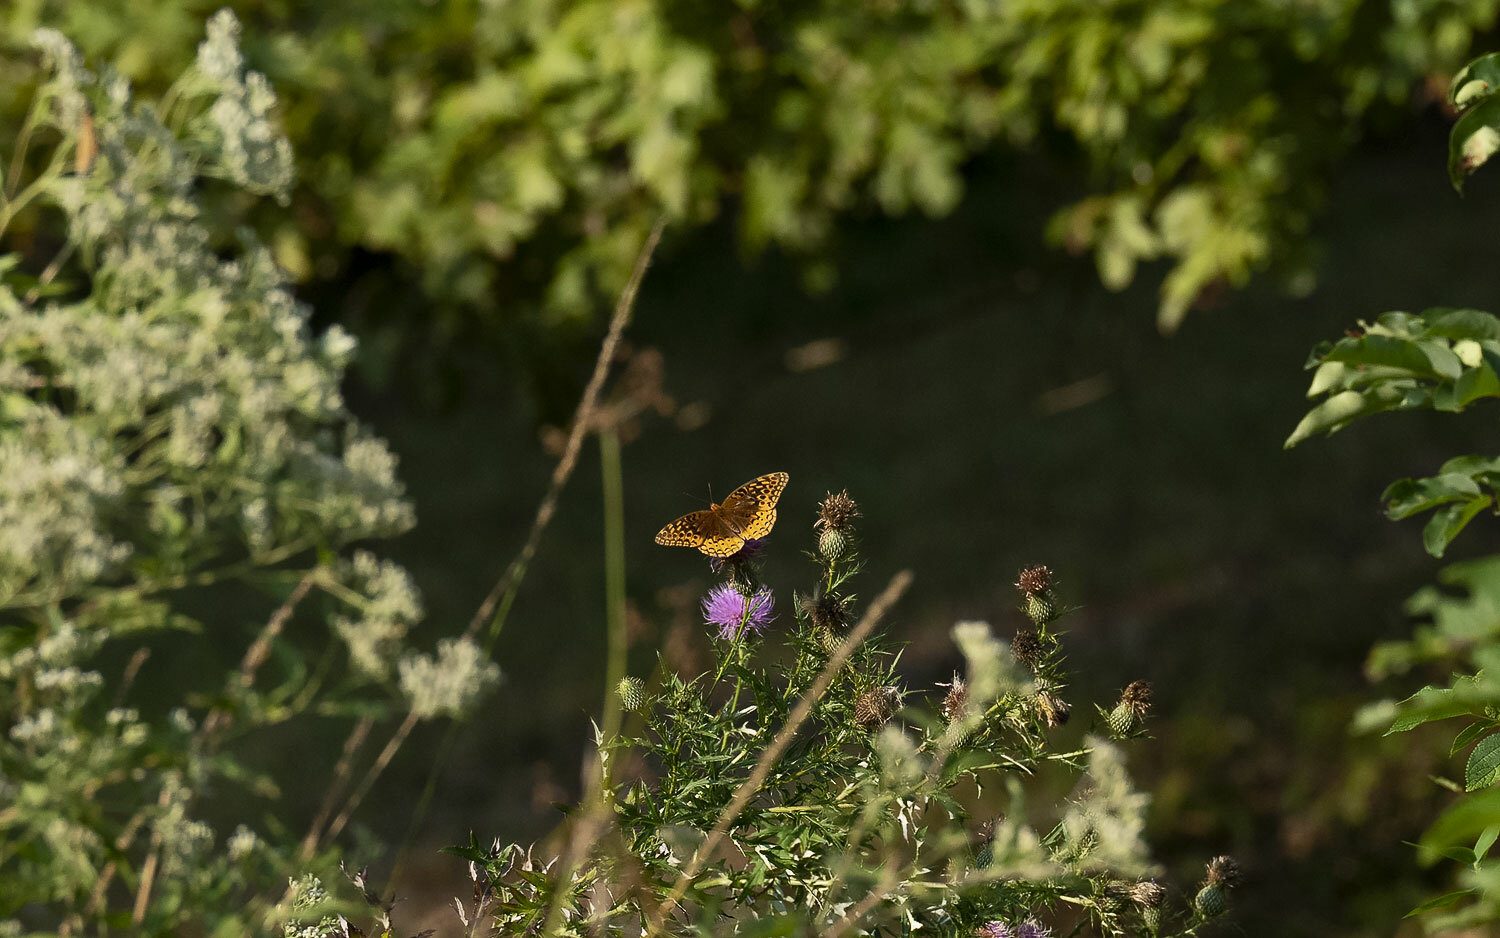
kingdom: Animalia
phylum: Arthropoda
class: Insecta
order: Lepidoptera
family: Nymphalidae
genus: Speyeria
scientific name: Speyeria cybele
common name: Great spangled fritillary
